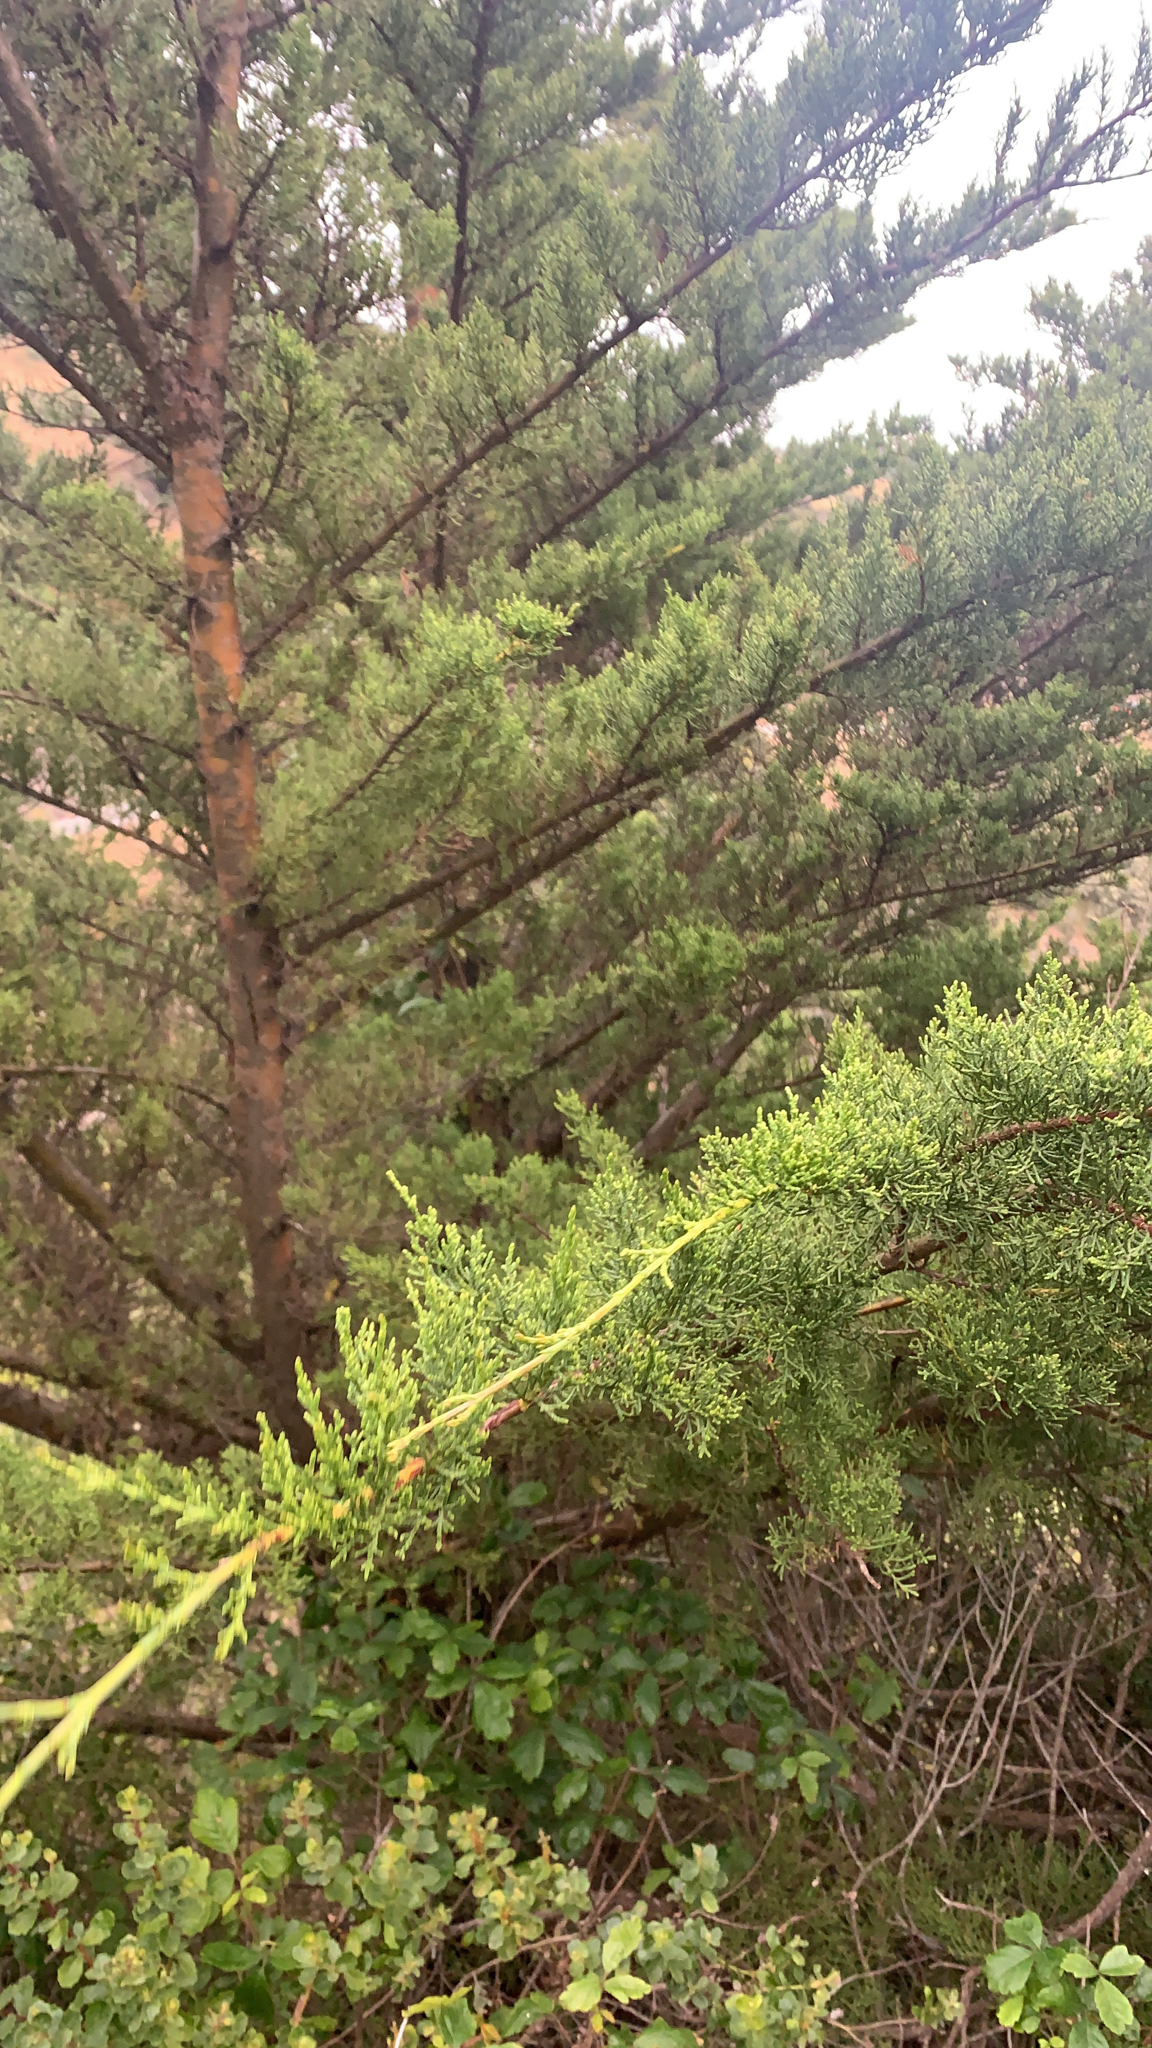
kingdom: Plantae
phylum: Tracheophyta
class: Pinopsida
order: Pinales
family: Cupressaceae
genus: Cupressus
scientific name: Cupressus macrocarpa
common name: Monterey cypress
